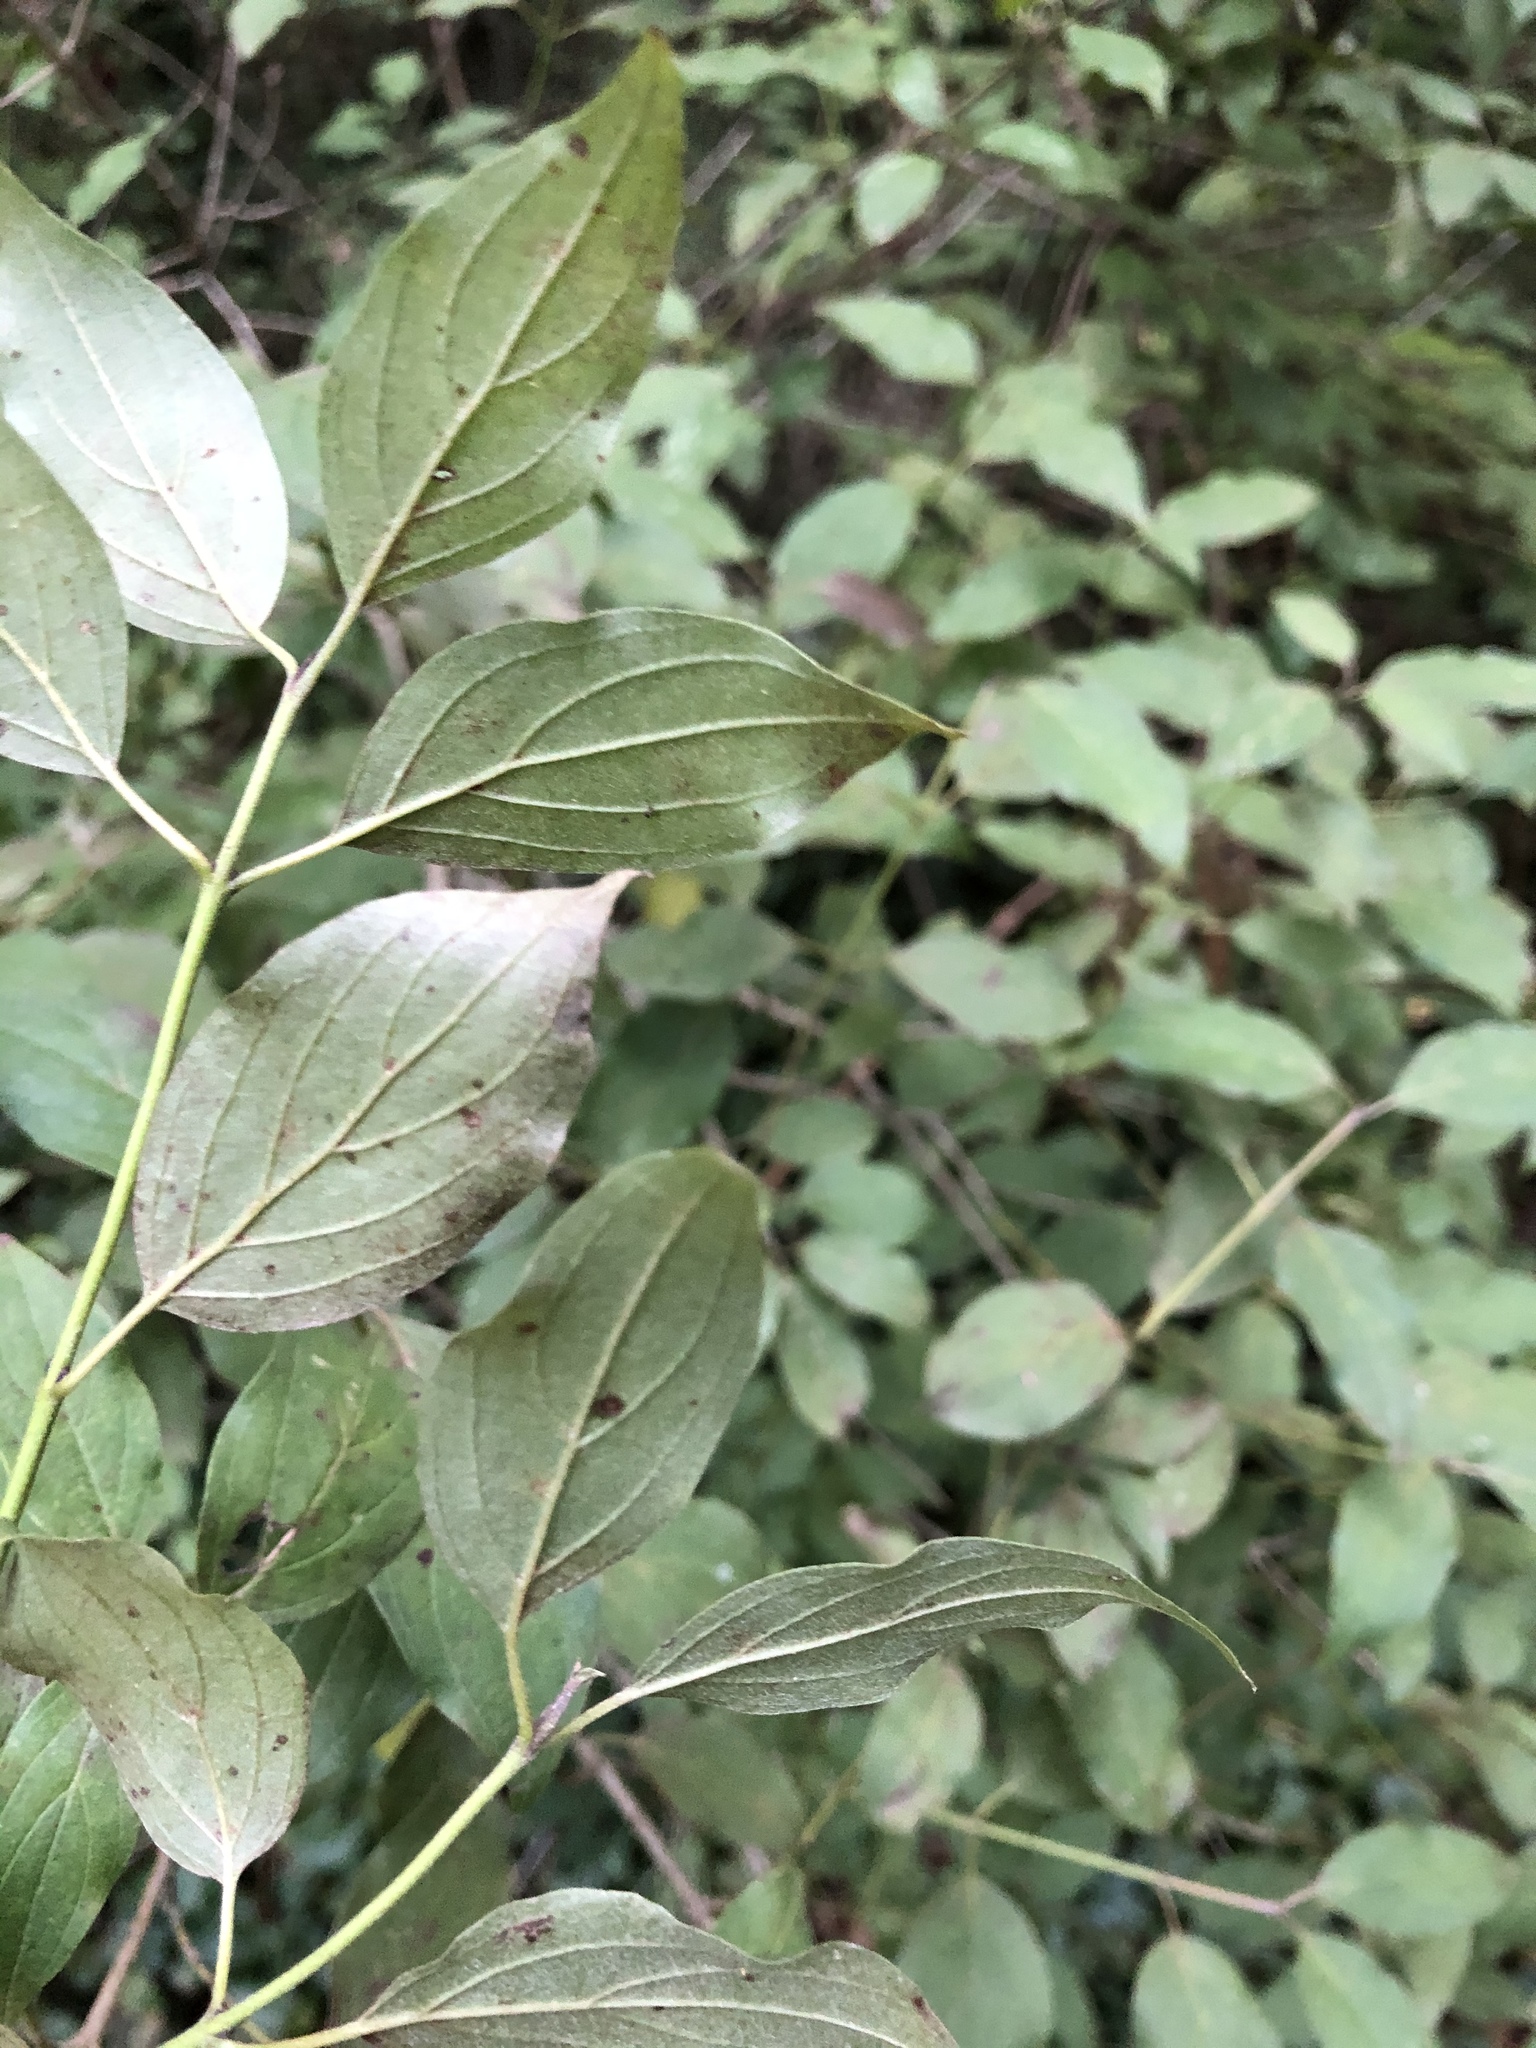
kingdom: Plantae
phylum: Tracheophyta
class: Magnoliopsida
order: Cornales
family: Cornaceae
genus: Cornus
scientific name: Cornus sanguinea
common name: Dogwood
